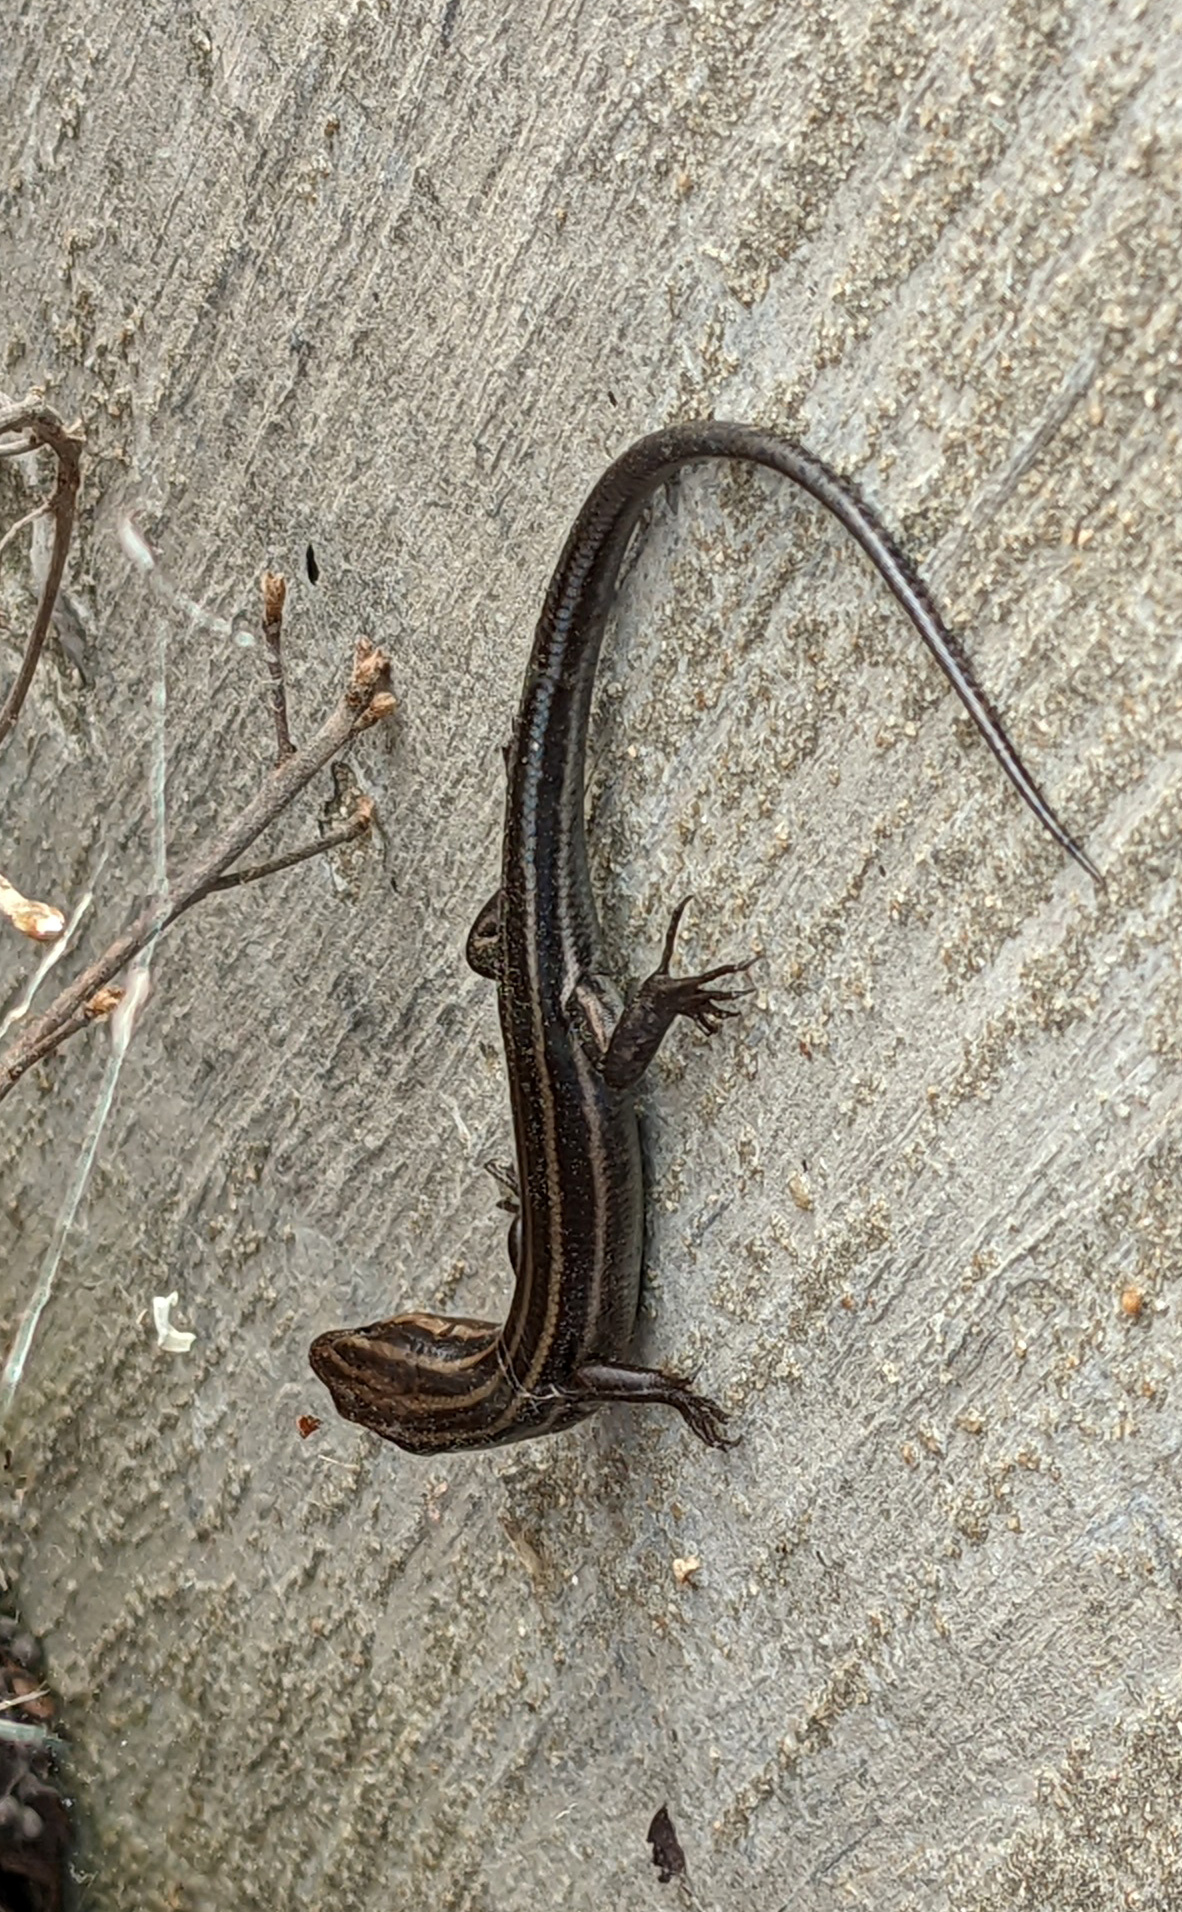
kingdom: Animalia
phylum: Chordata
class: Squamata
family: Scincidae
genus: Plestiodon
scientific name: Plestiodon fasciatus
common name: Five-lined skink
